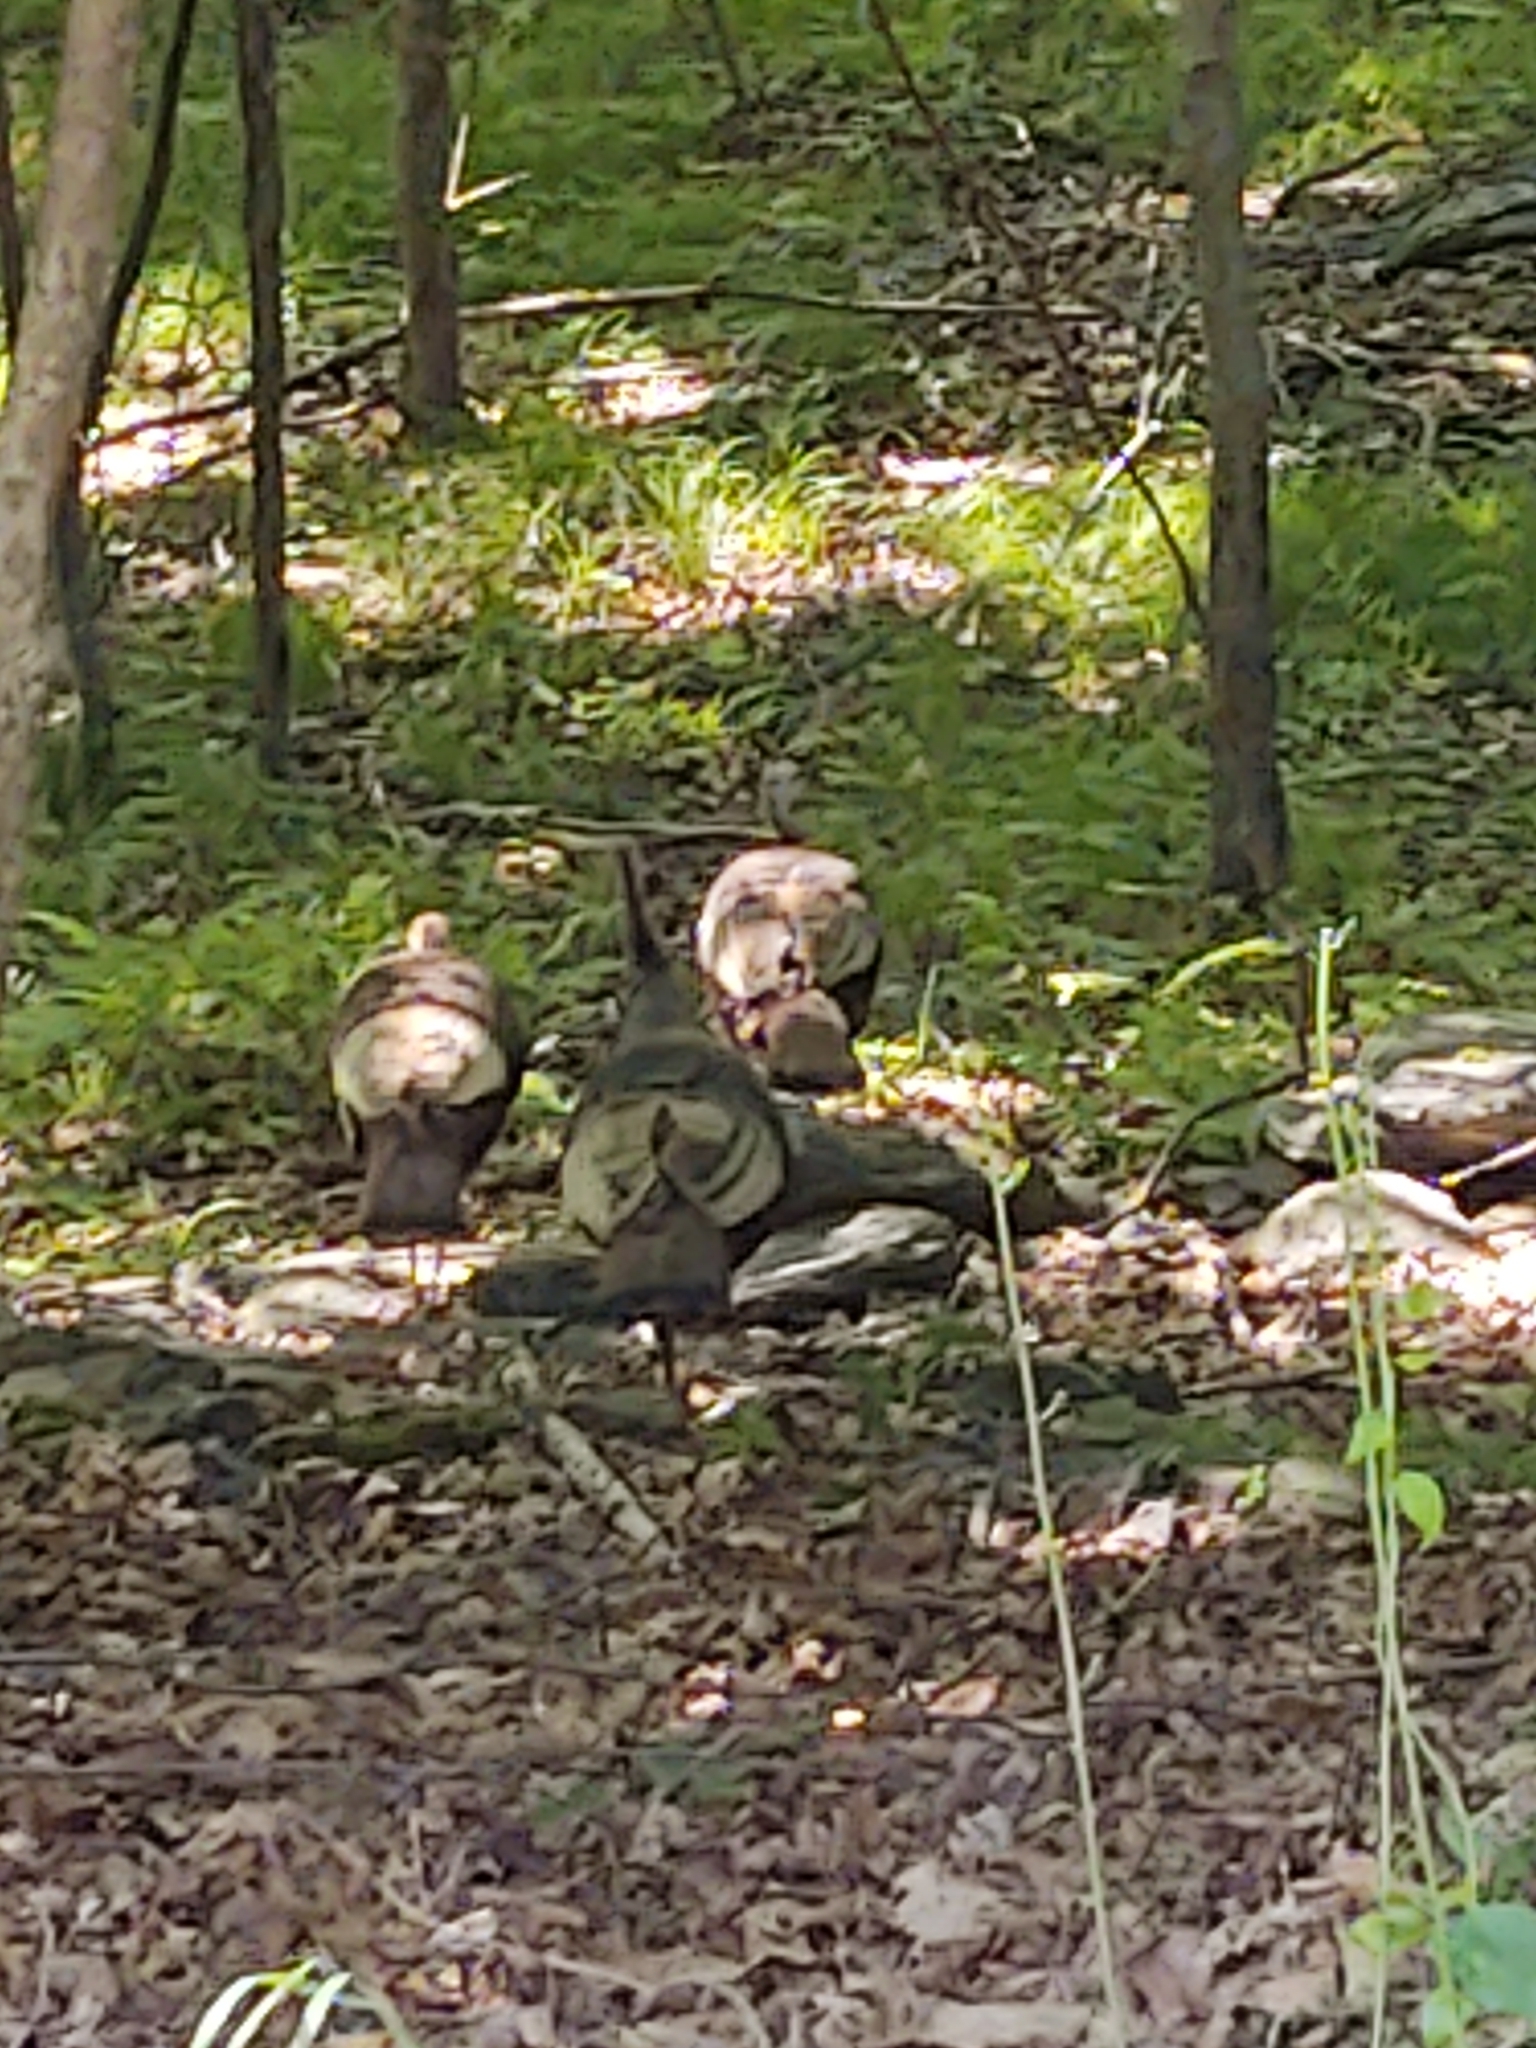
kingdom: Animalia
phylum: Chordata
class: Aves
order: Galliformes
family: Phasianidae
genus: Meleagris
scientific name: Meleagris gallopavo
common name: Wild turkey
